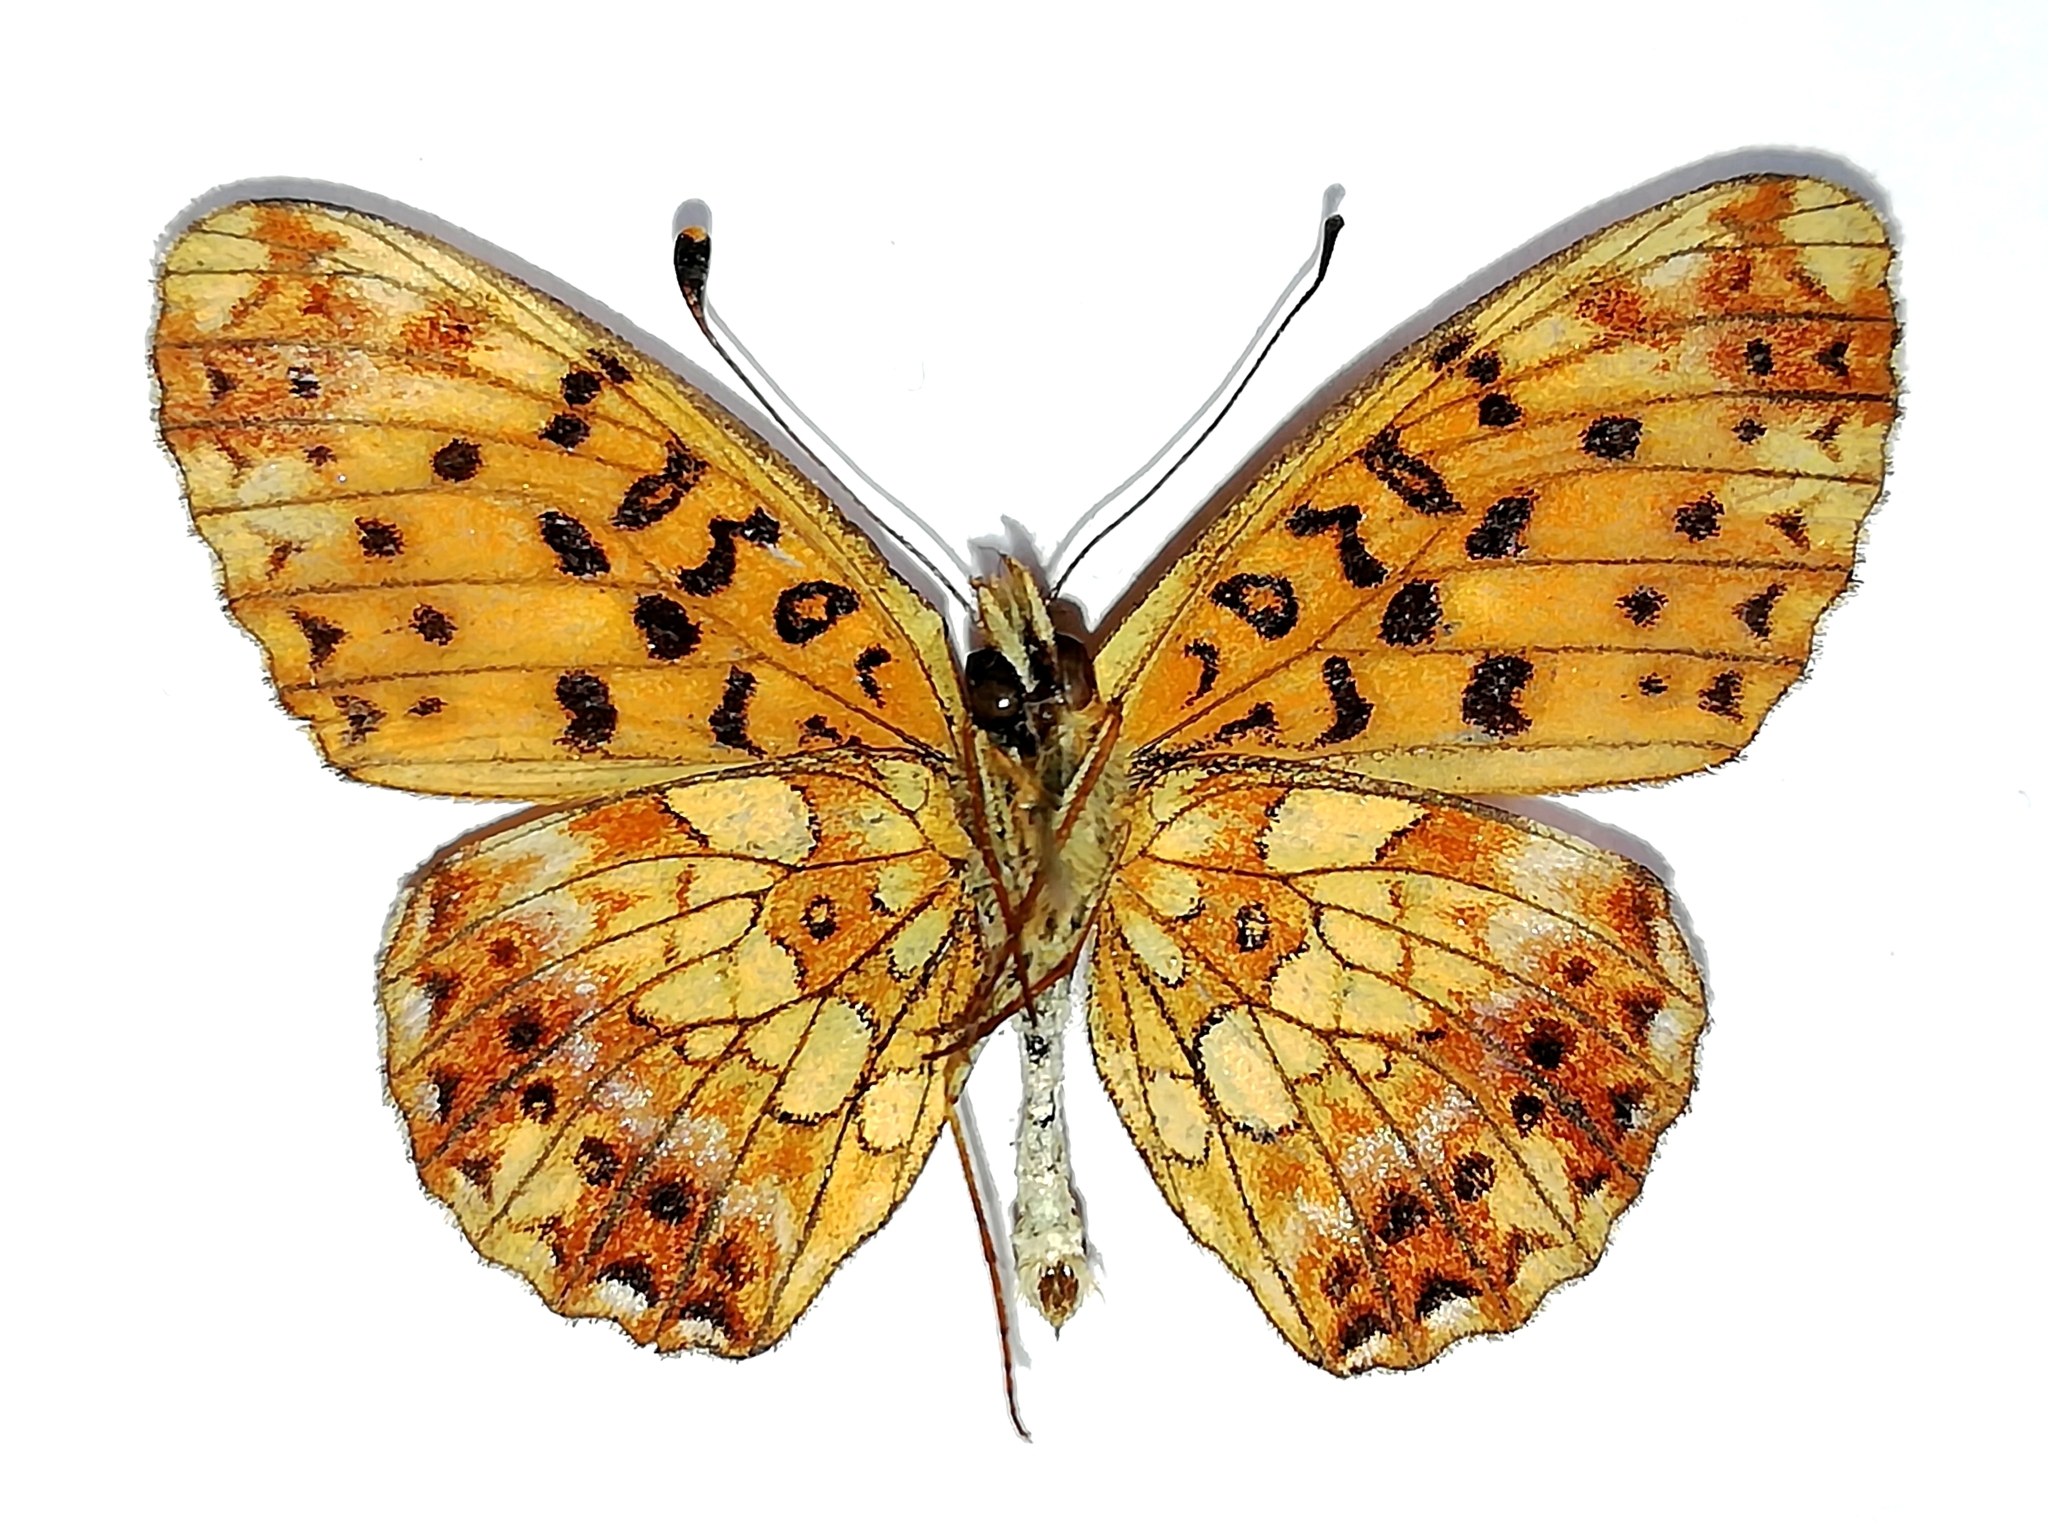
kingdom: Animalia
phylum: Arthropoda
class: Insecta
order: Lepidoptera
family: Nymphalidae
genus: Clossiana
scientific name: Clossiana selenis
